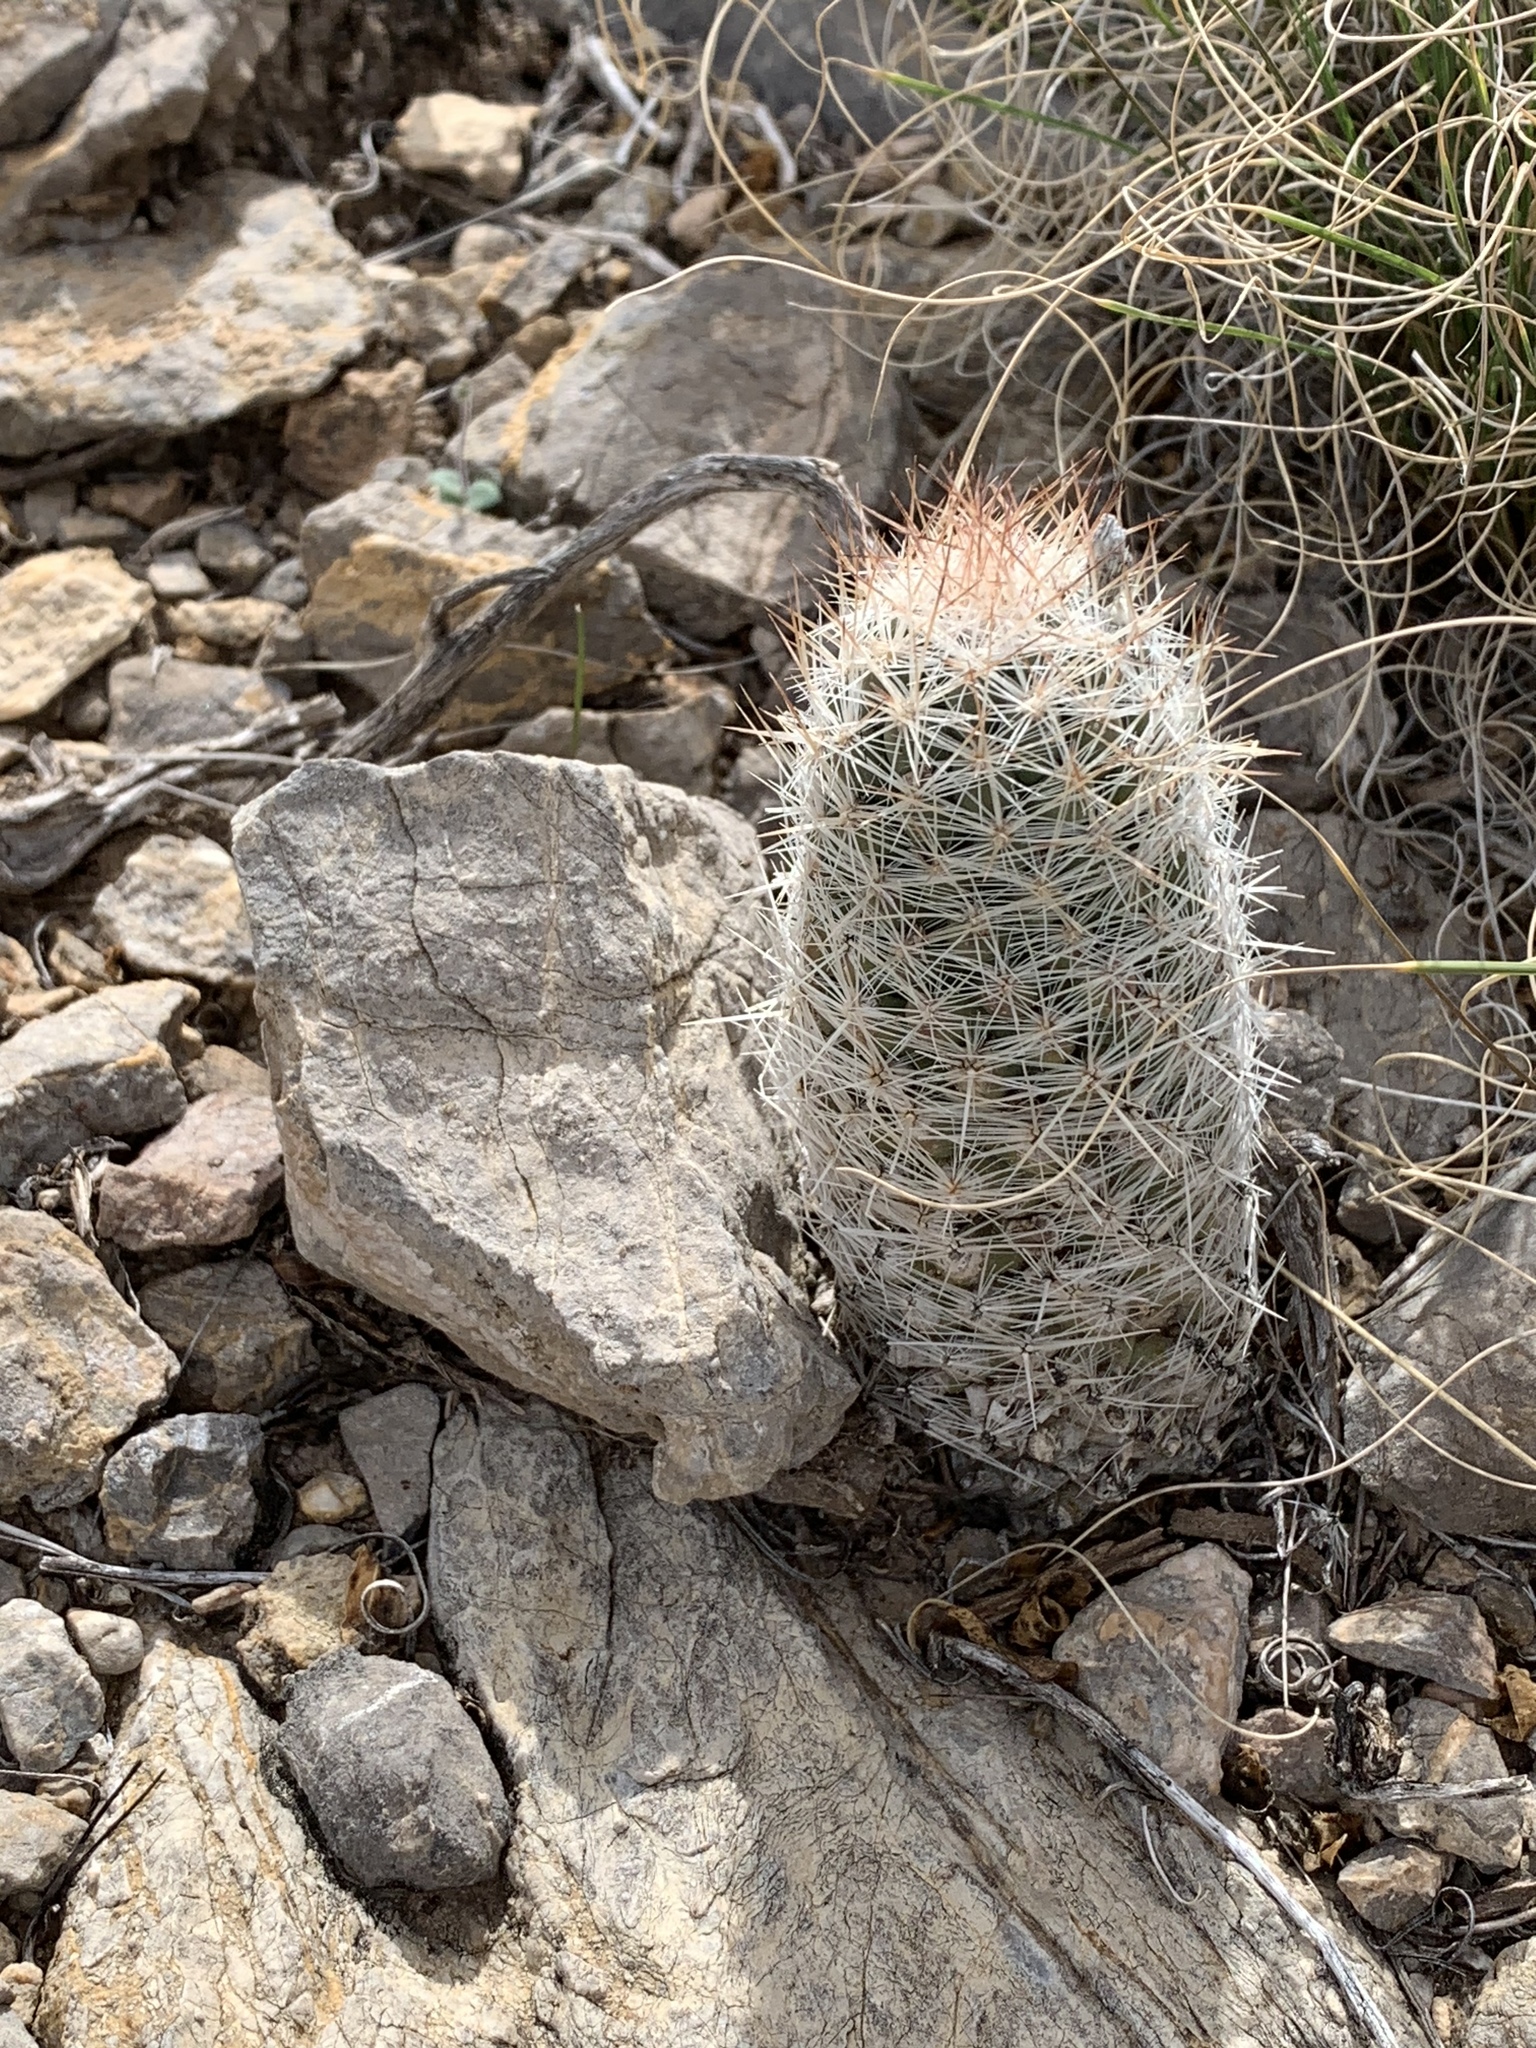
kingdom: Plantae
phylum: Tracheophyta
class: Magnoliopsida
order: Caryophyllales
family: Cactaceae
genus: Pelecyphora
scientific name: Pelecyphora tuberculosa
